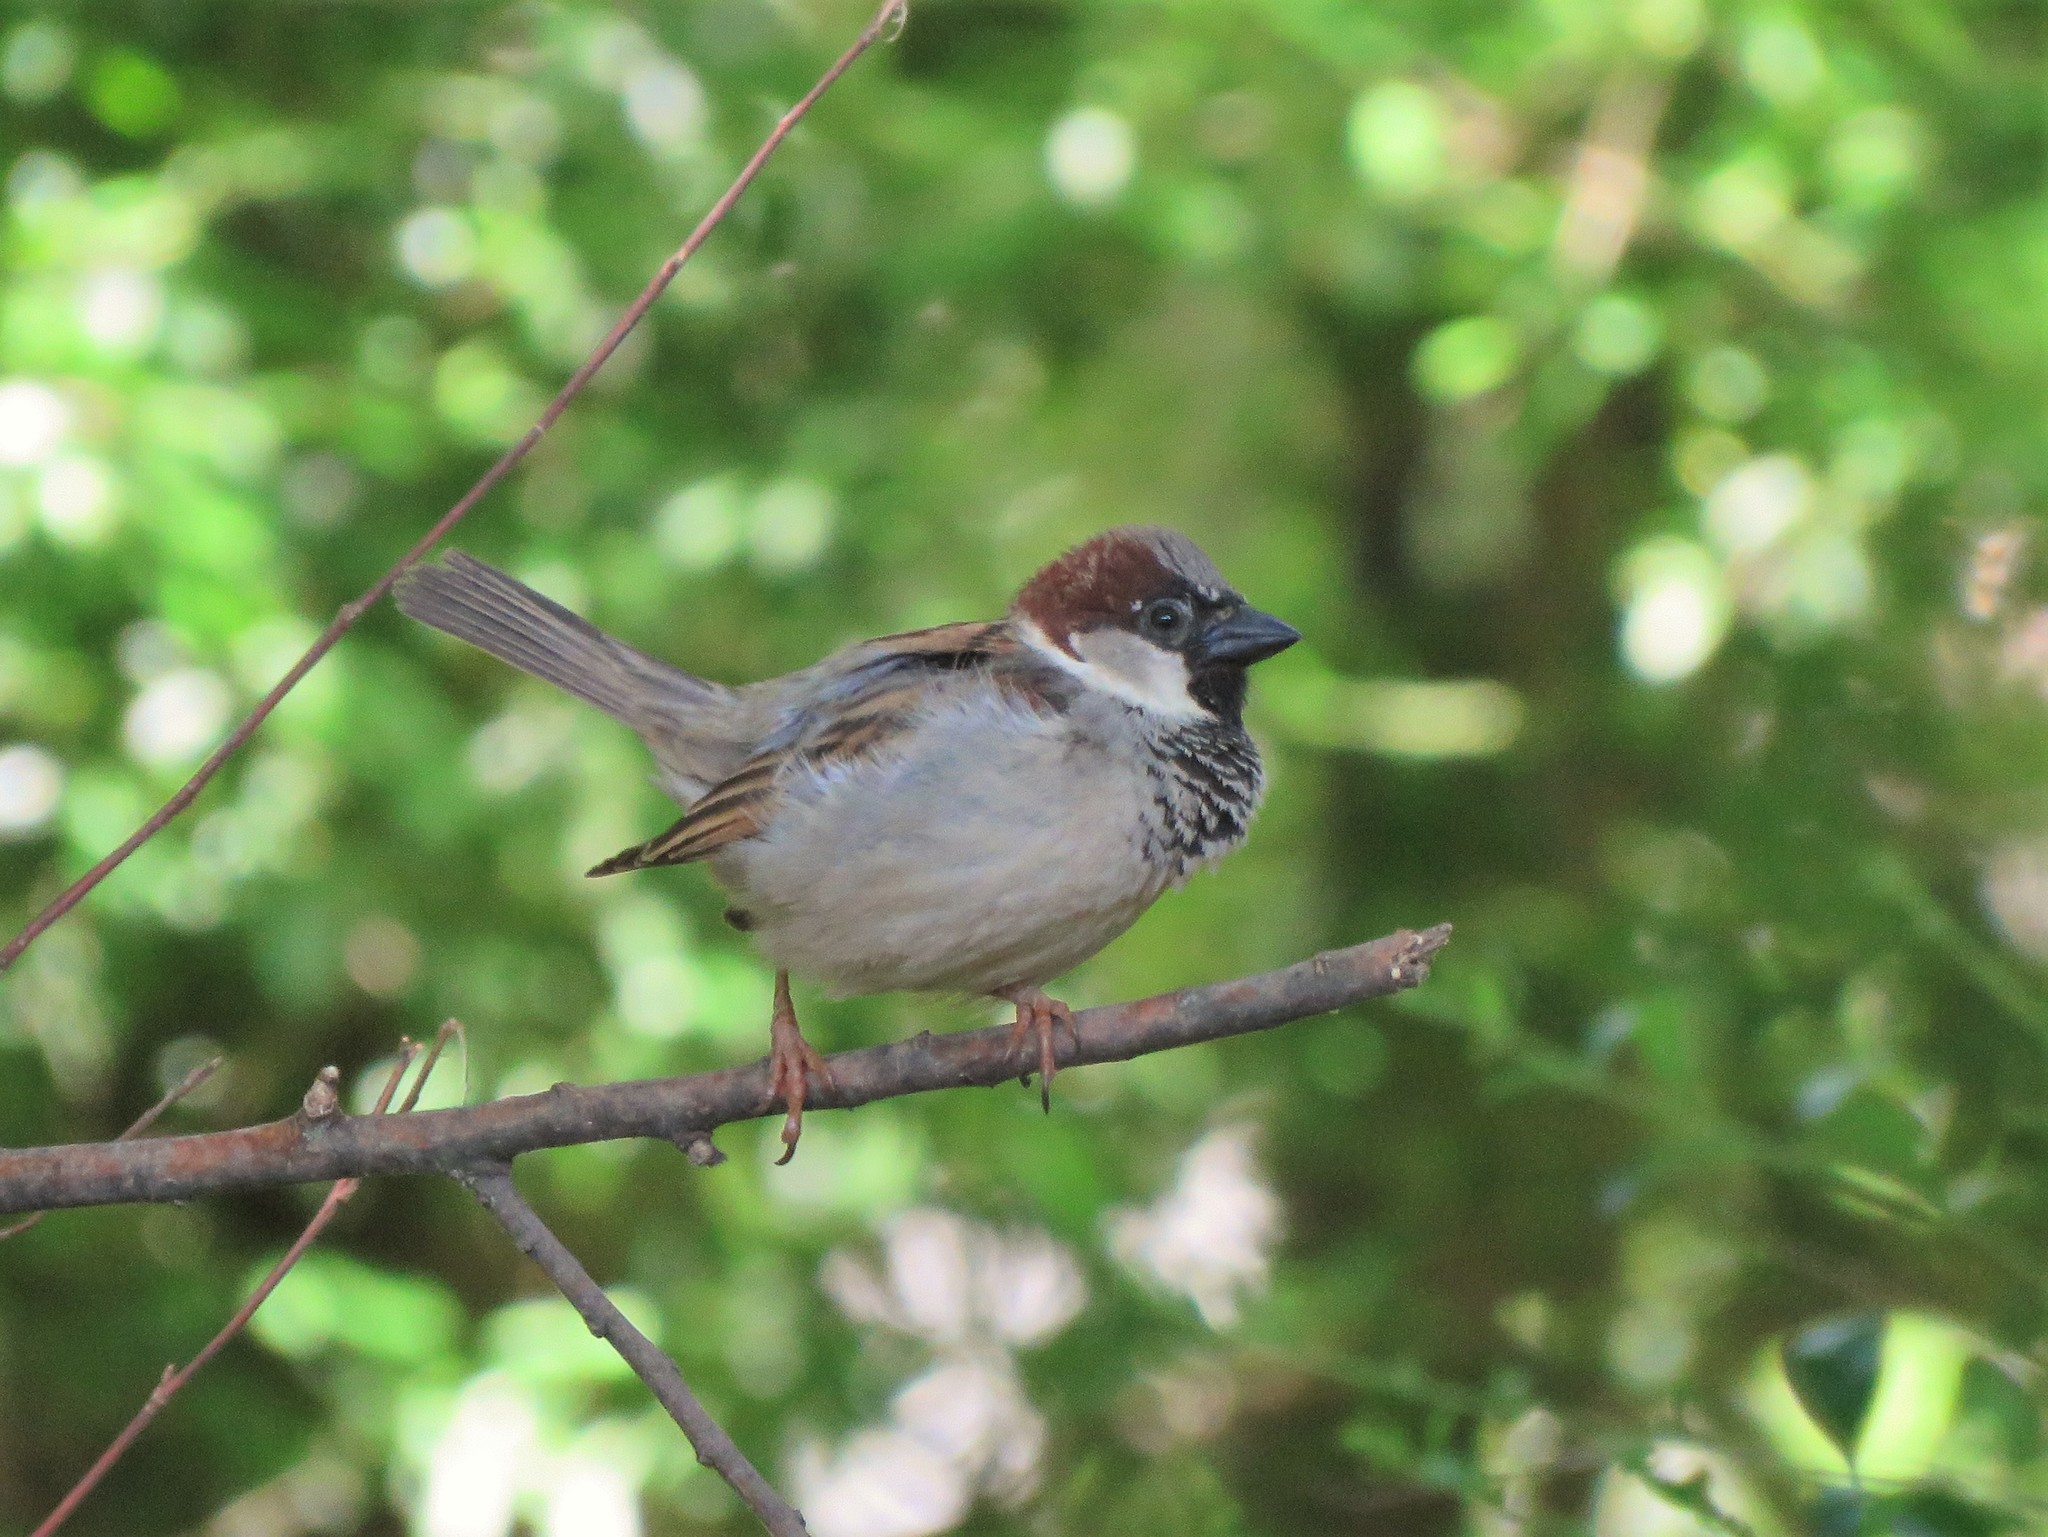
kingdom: Animalia
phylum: Chordata
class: Aves
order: Passeriformes
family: Passeridae
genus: Passer
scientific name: Passer domesticus
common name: House sparrow
